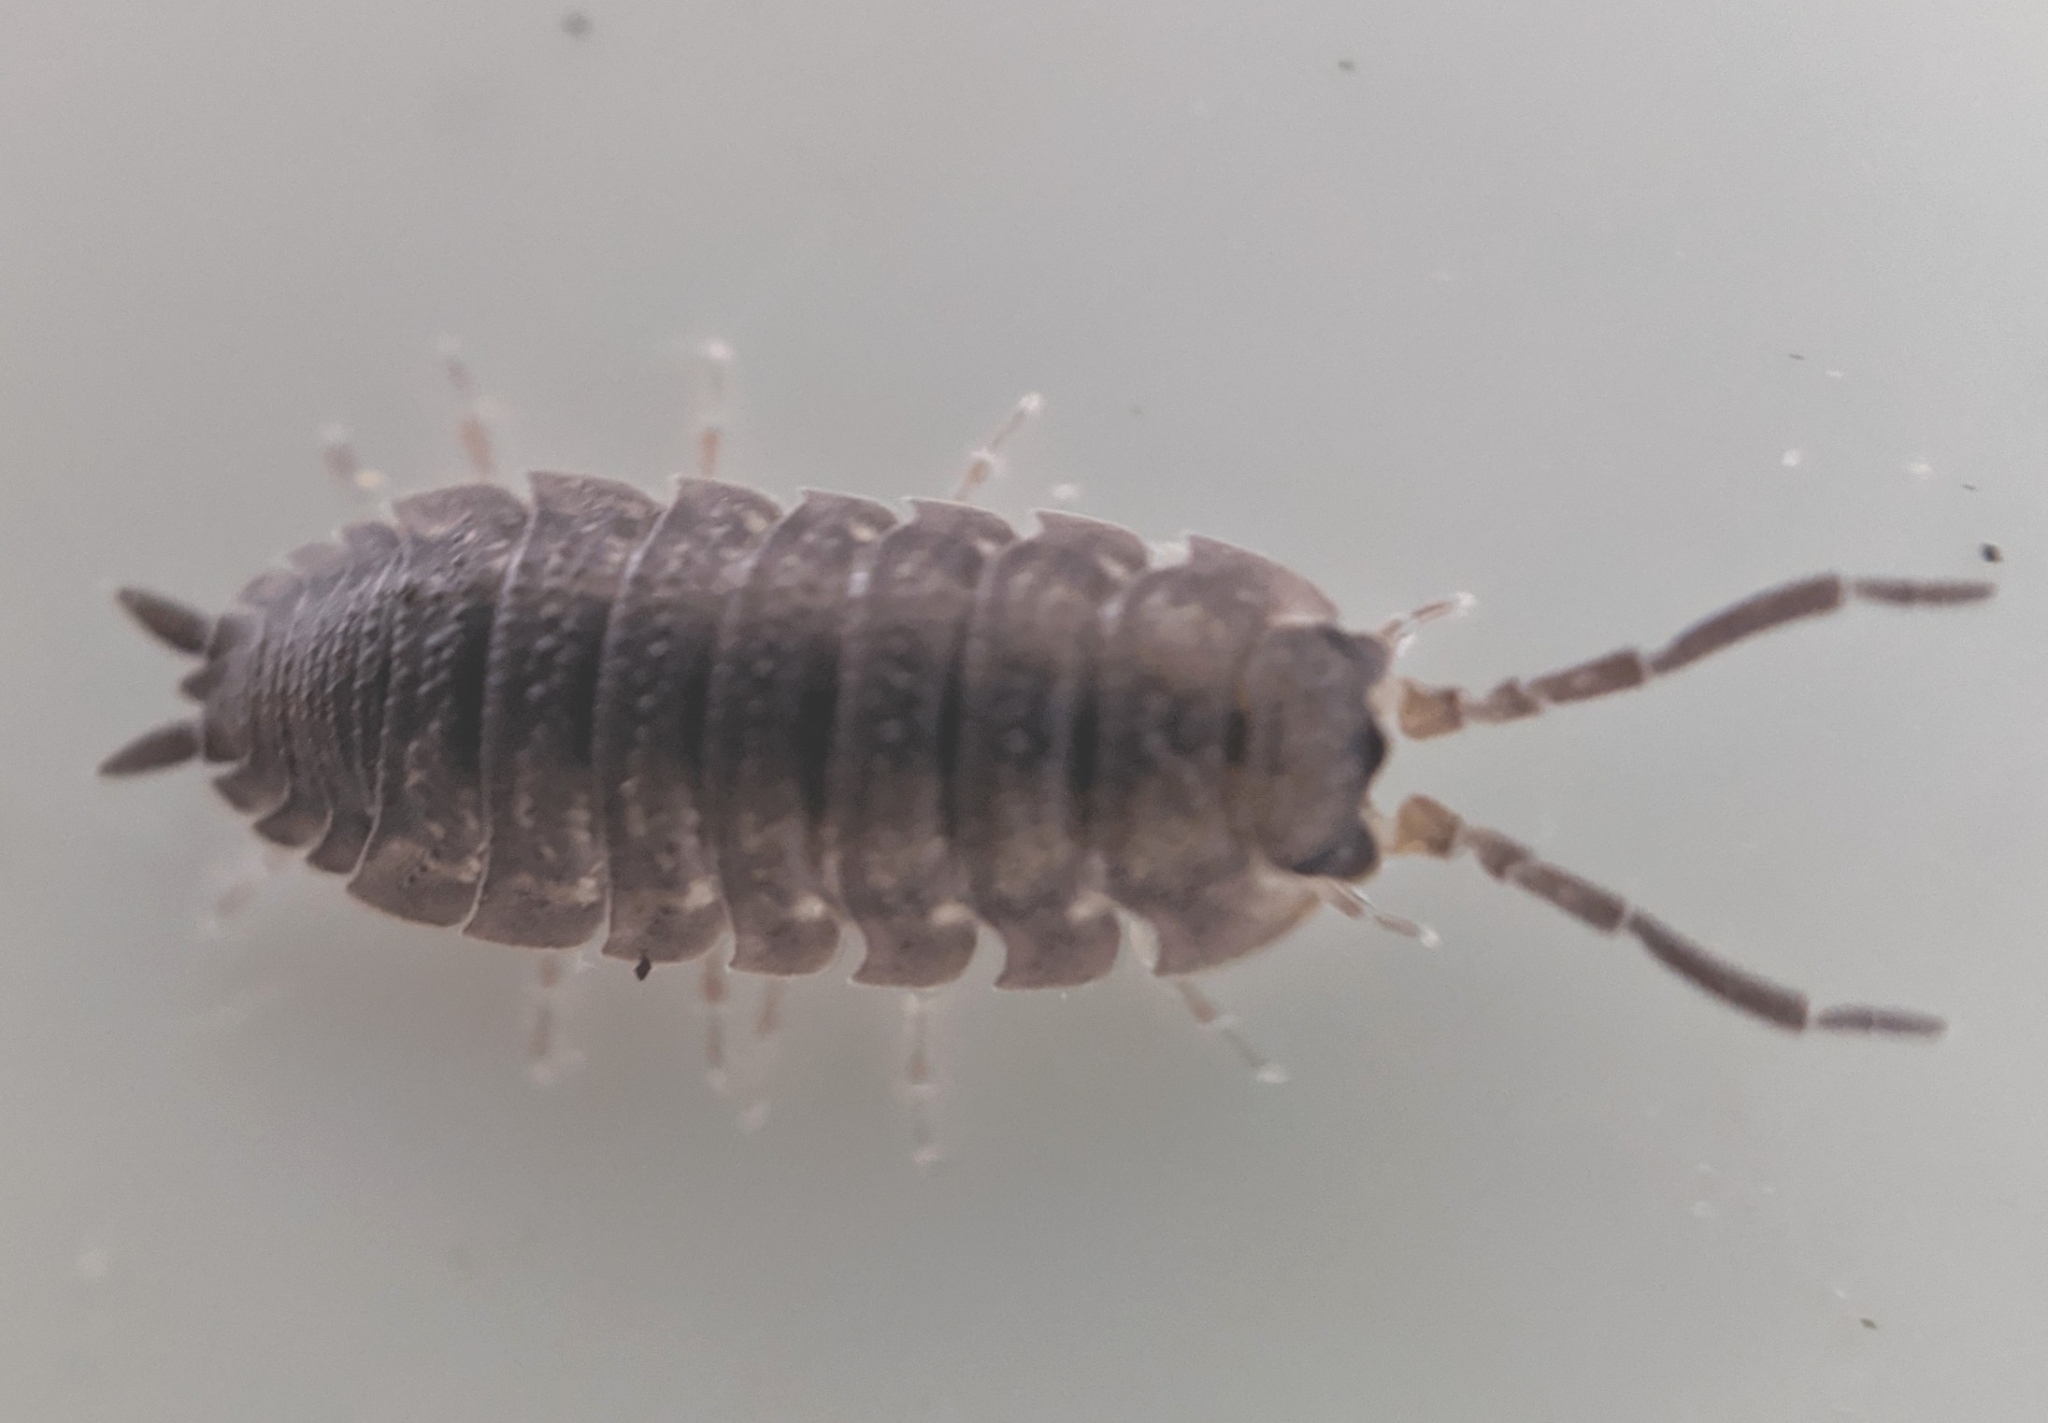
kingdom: Animalia
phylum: Arthropoda
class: Malacostraca
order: Isopoda
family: Porcellionidae
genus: Porcellio
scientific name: Porcellio scaber
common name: Common rough woodlouse
